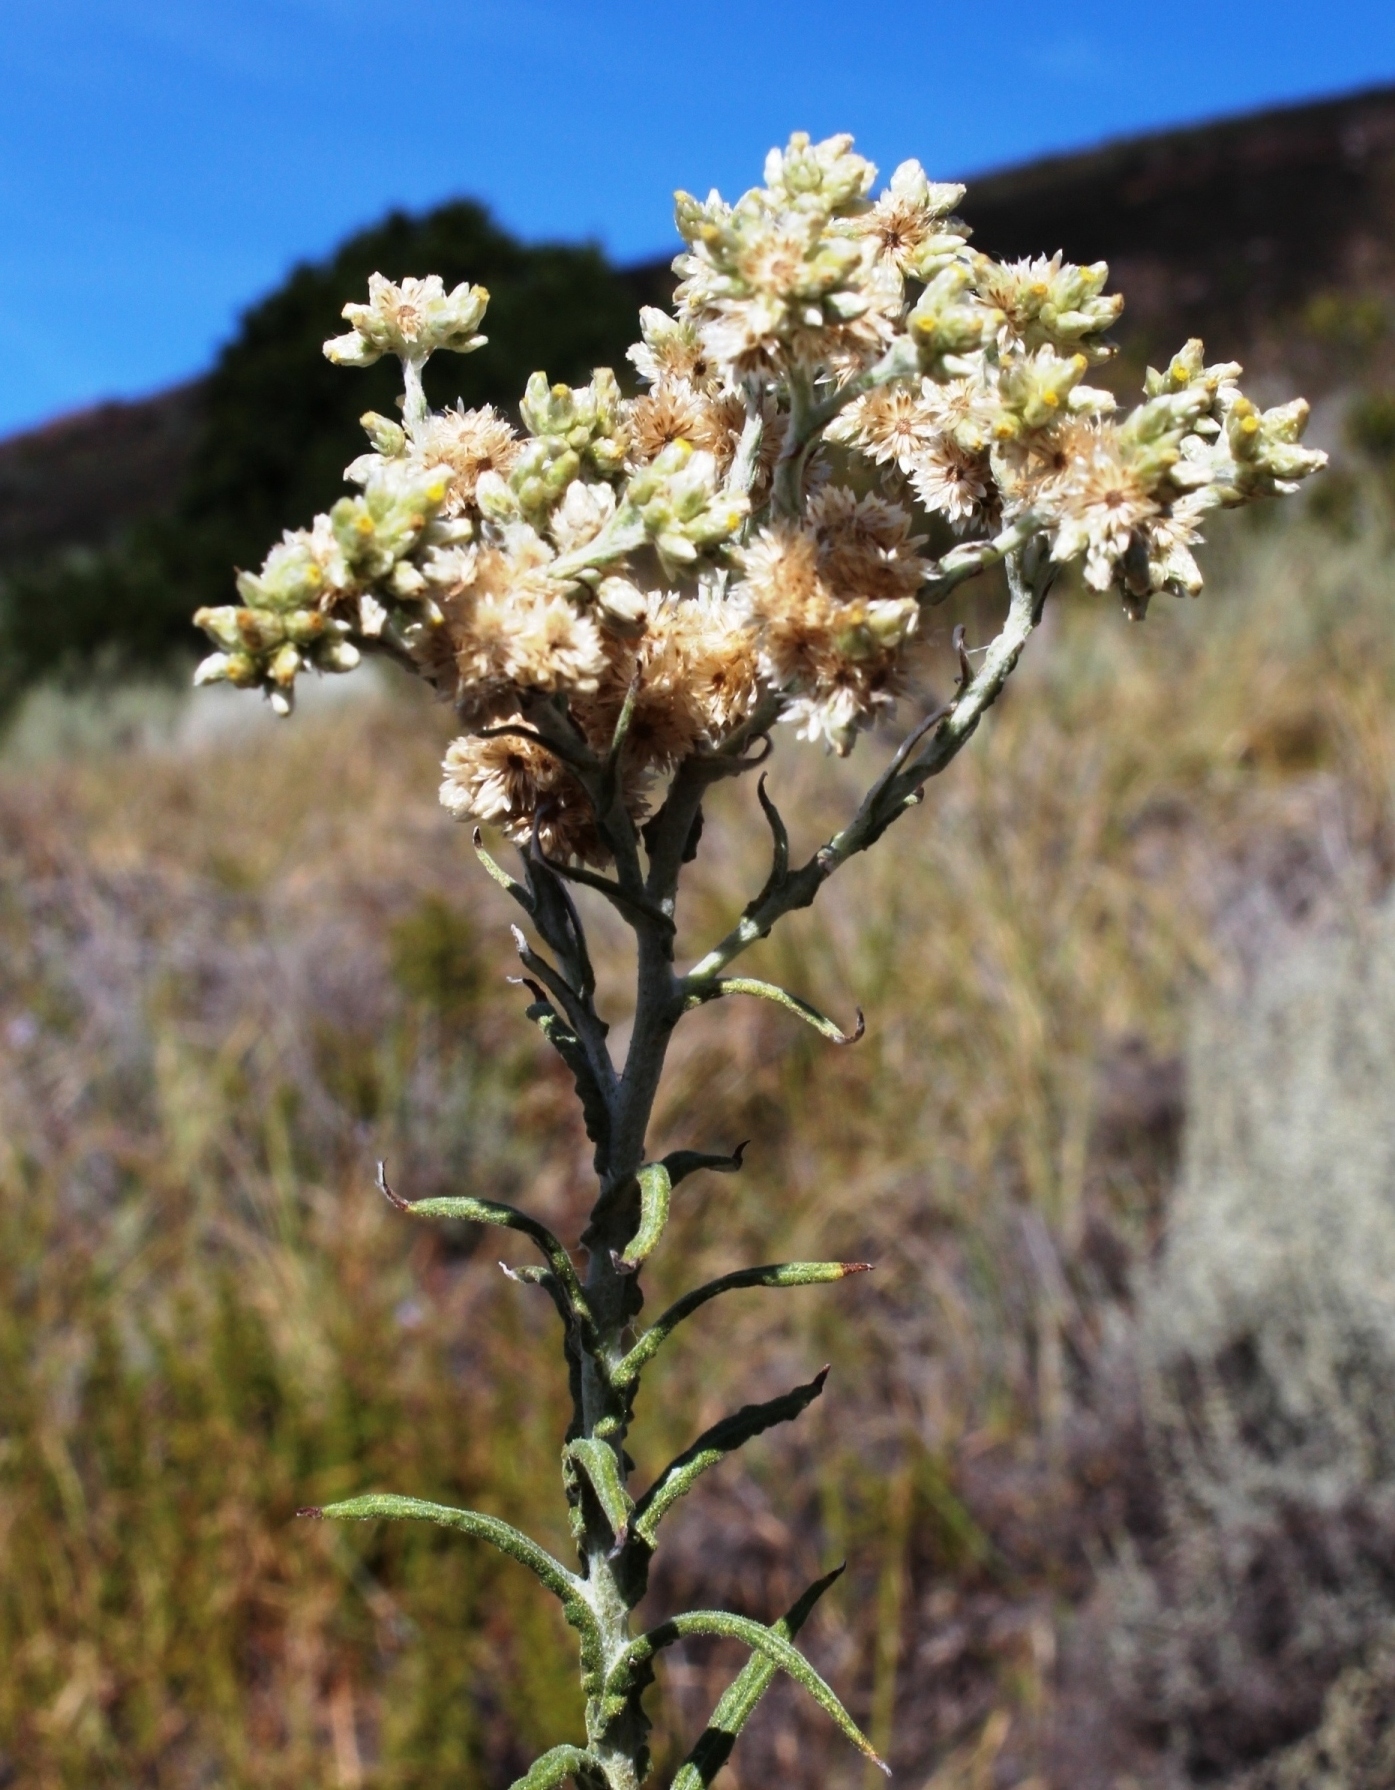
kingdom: Plantae
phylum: Tracheophyta
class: Magnoliopsida
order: Asterales
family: Asteraceae
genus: Pseudognaphalium
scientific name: Pseudognaphalium undulatum
